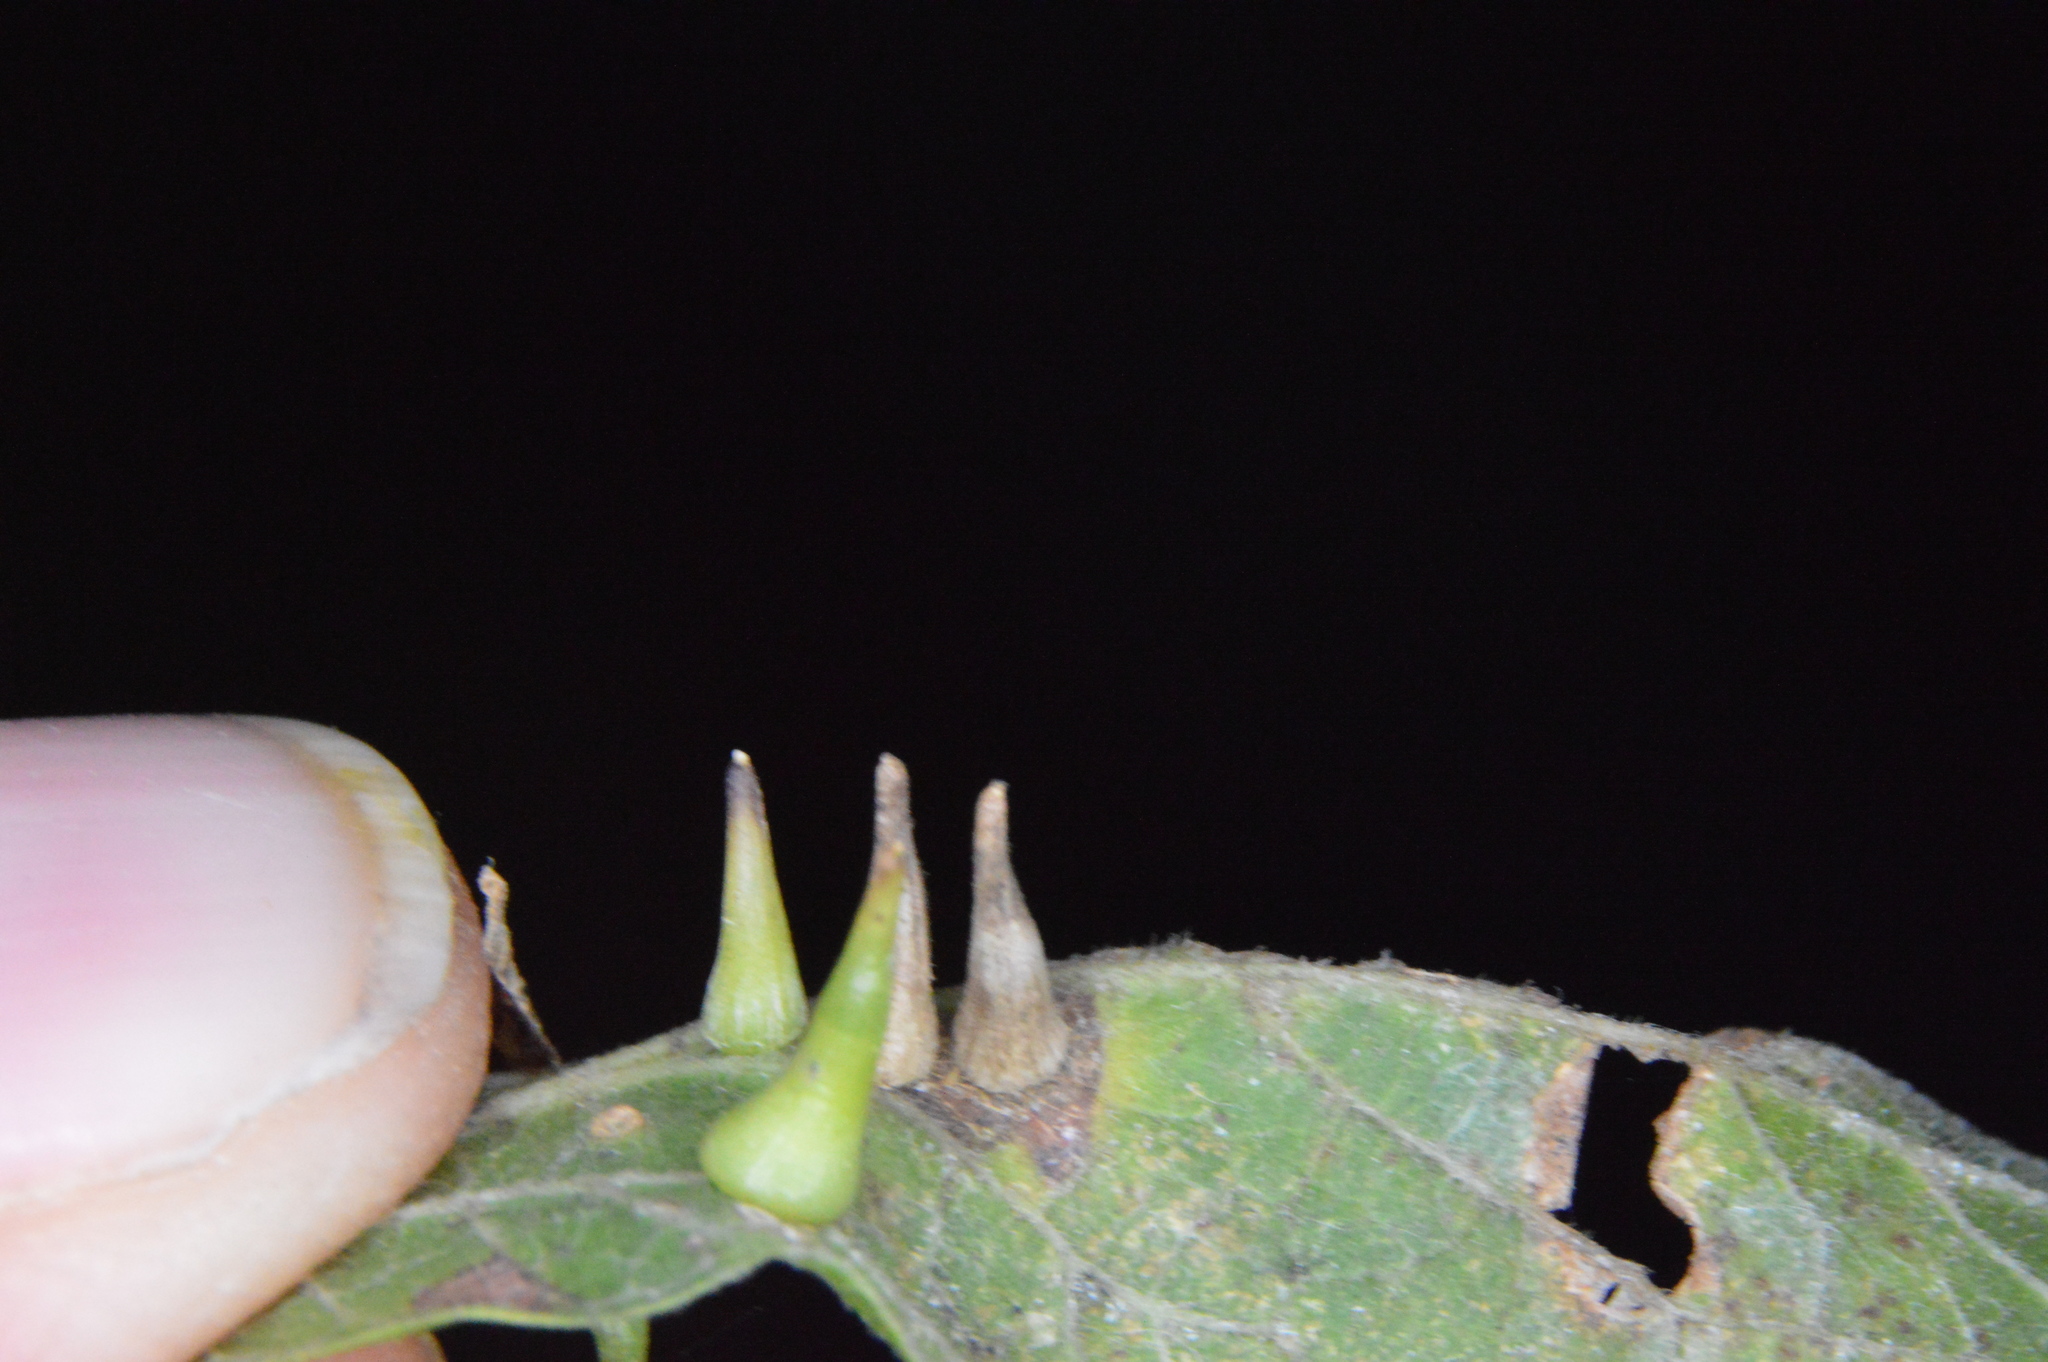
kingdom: Animalia
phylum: Arthropoda
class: Insecta
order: Diptera
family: Cecidomyiidae
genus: Celticecis
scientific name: Celticecis subulata
